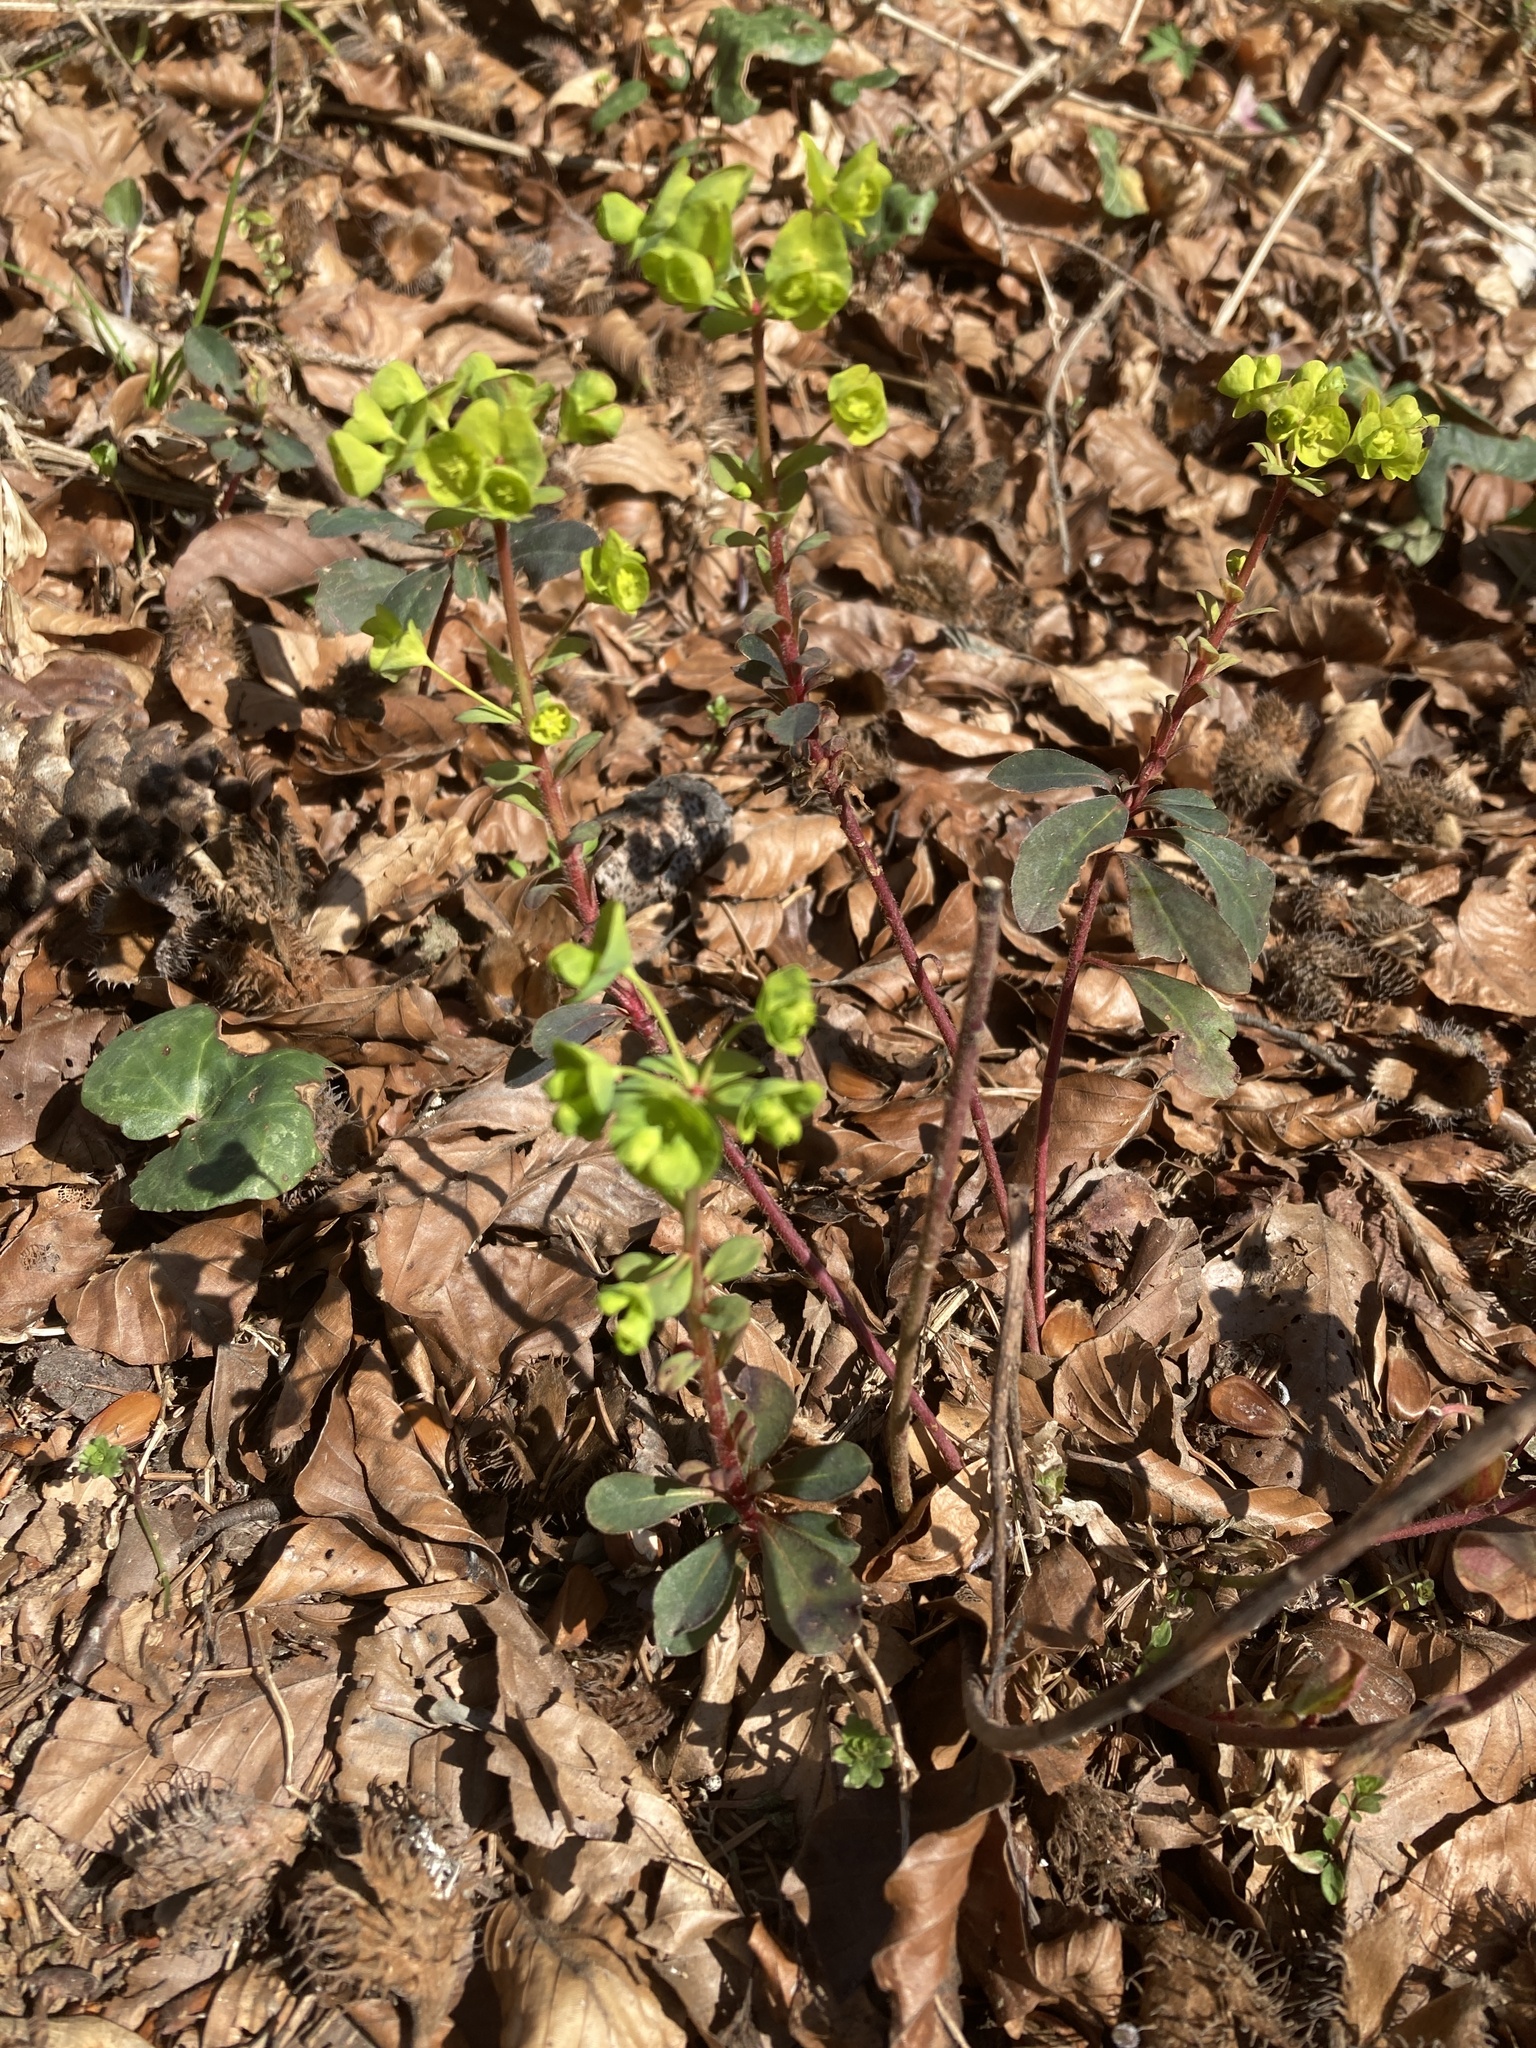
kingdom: Plantae
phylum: Tracheophyta
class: Magnoliopsida
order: Malpighiales
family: Euphorbiaceae
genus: Euphorbia
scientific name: Euphorbia amygdaloides
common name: Wood spurge
